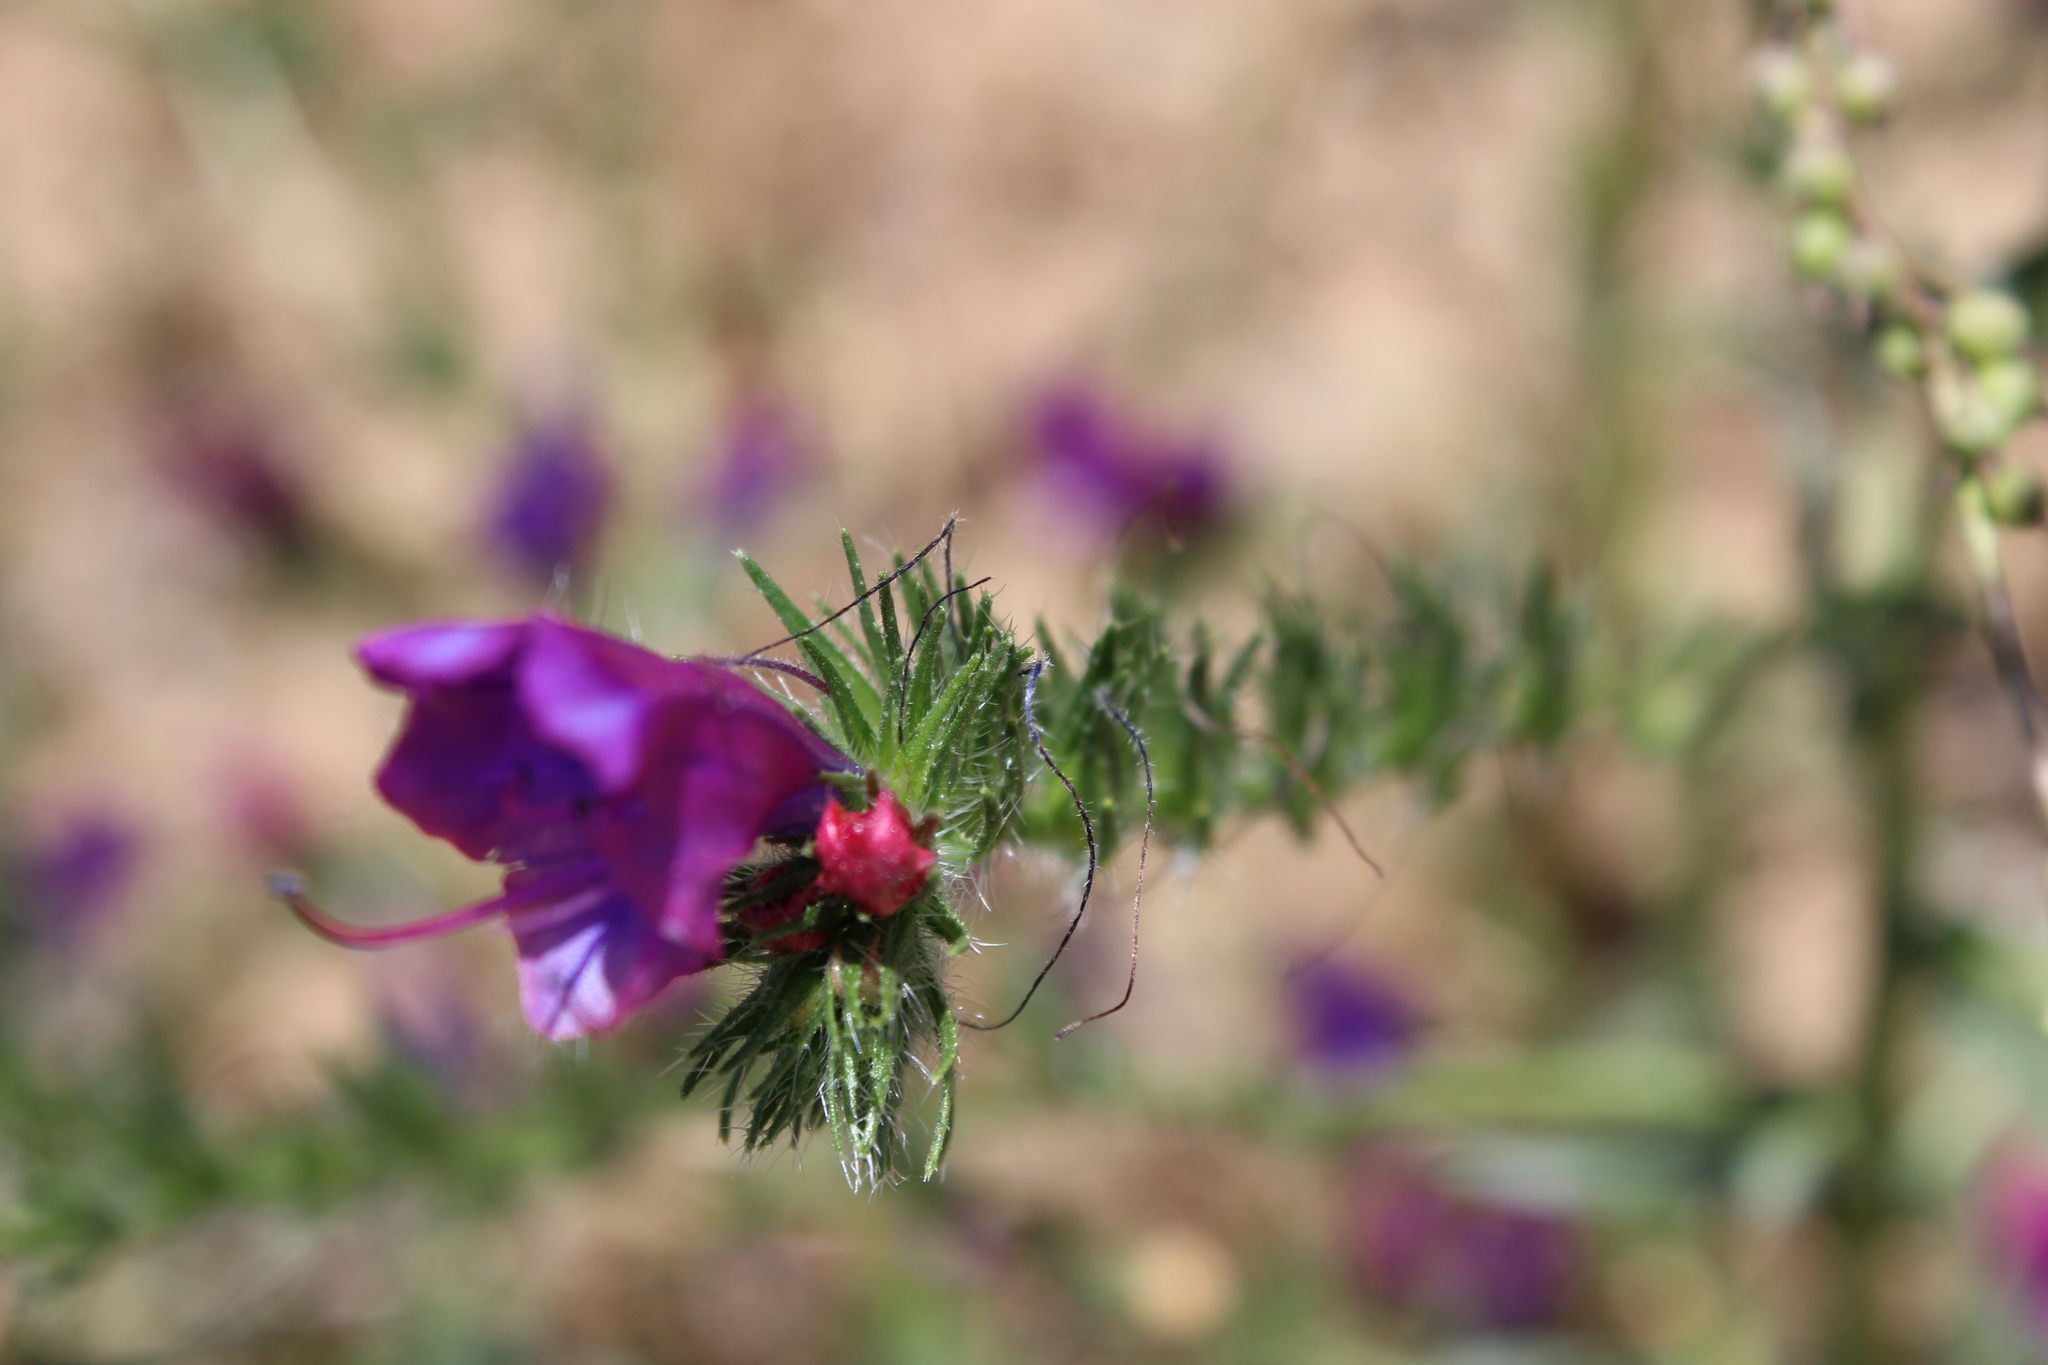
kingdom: Plantae
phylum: Tracheophyta
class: Magnoliopsida
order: Boraginales
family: Boraginaceae
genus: Echium
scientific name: Echium plantagineum
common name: Purple viper's-bugloss
